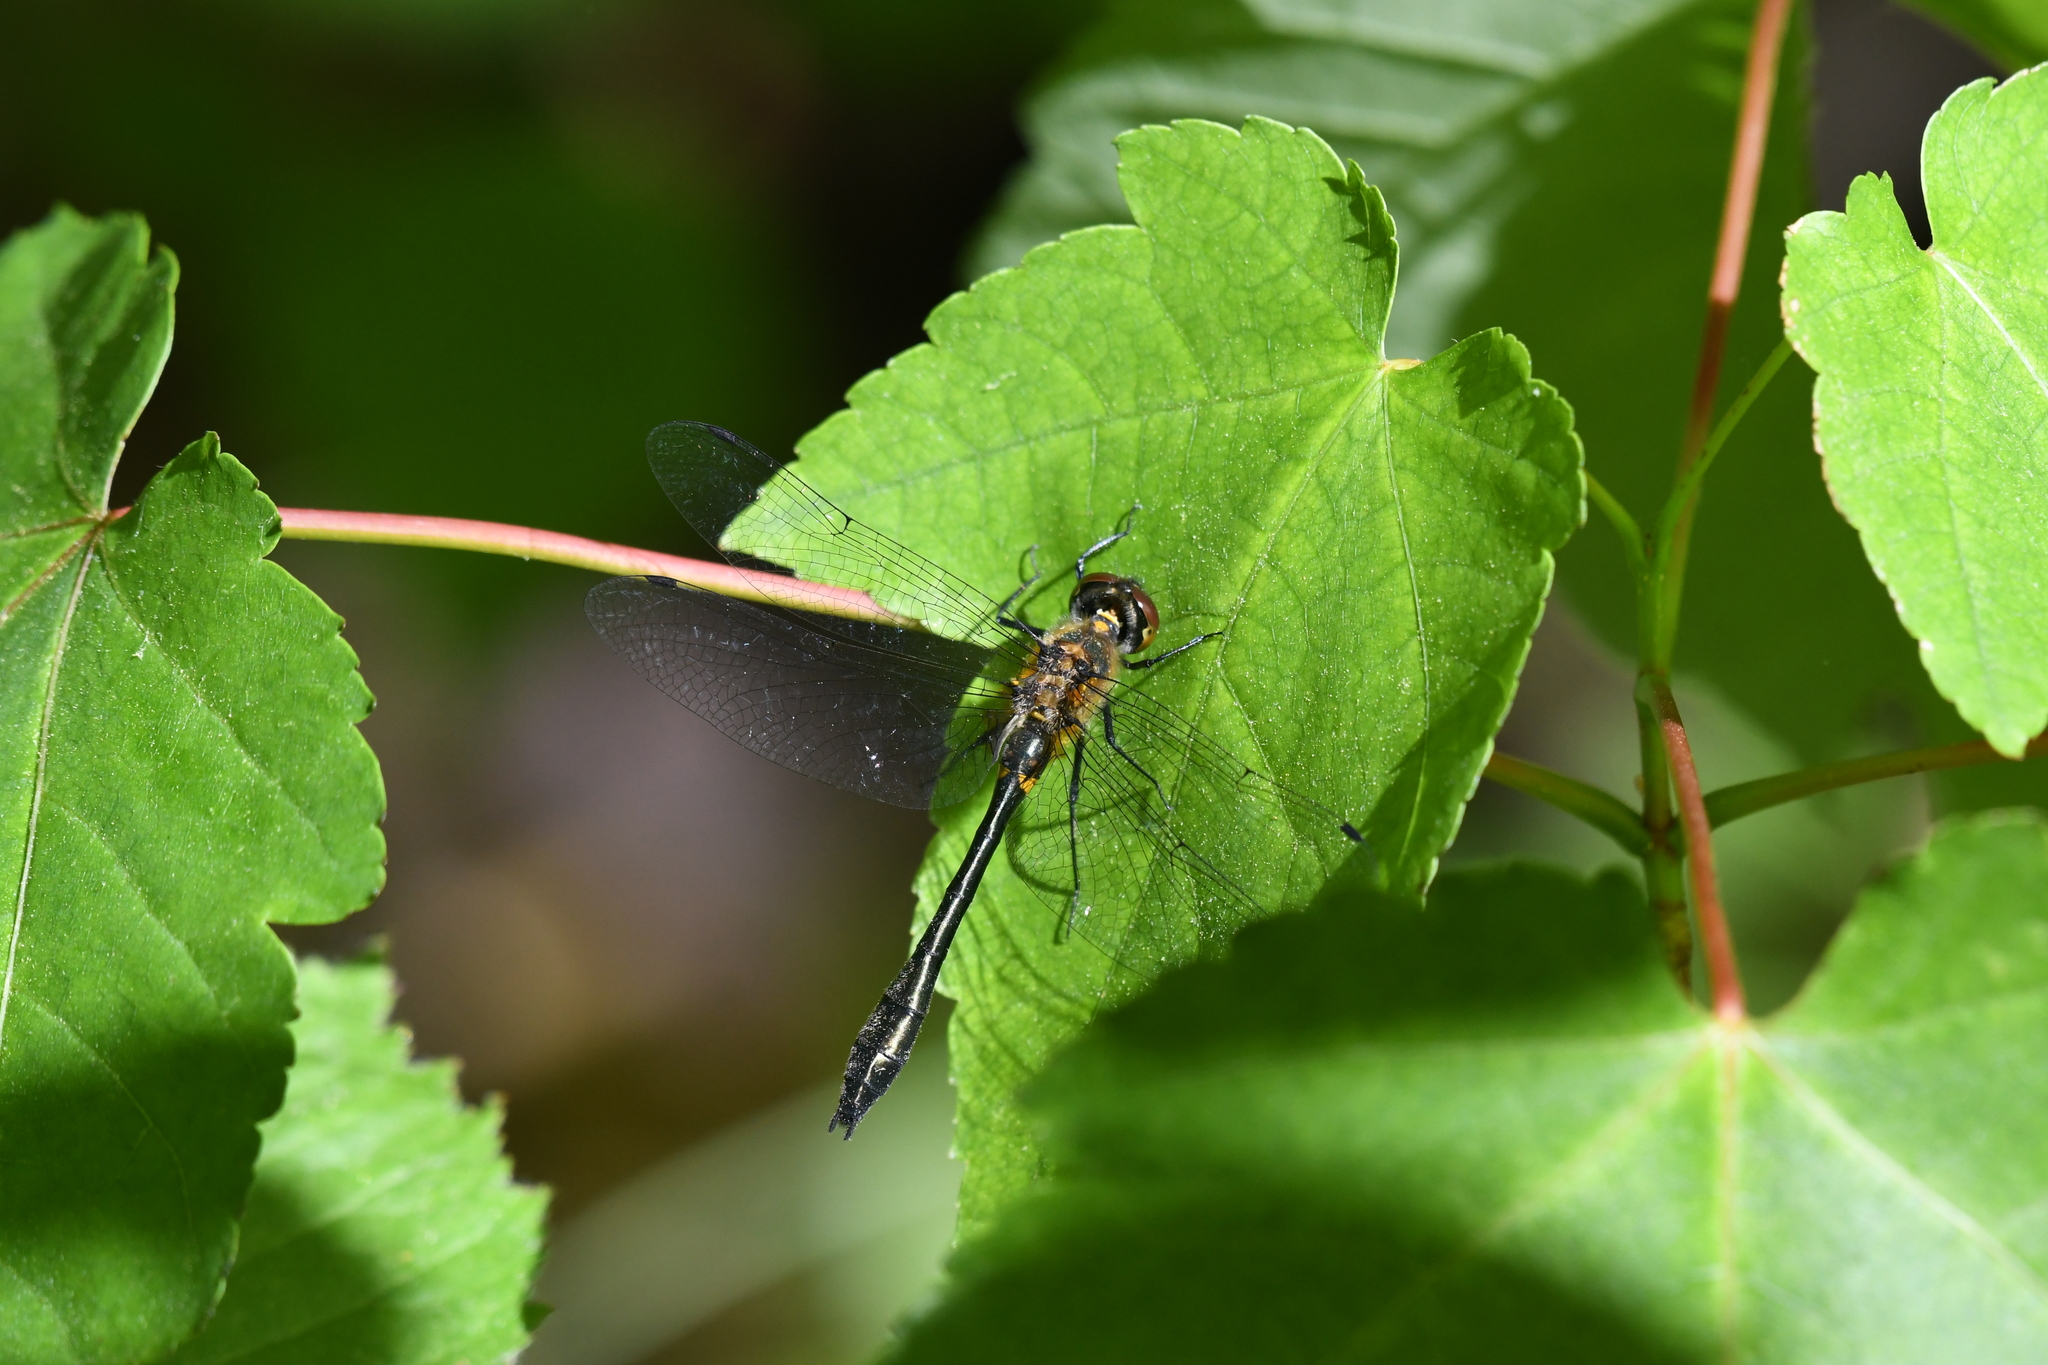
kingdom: Animalia
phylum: Arthropoda
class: Insecta
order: Odonata
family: Corduliidae
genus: Dorocordulia
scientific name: Dorocordulia libera
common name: Racket-tailed emerald
